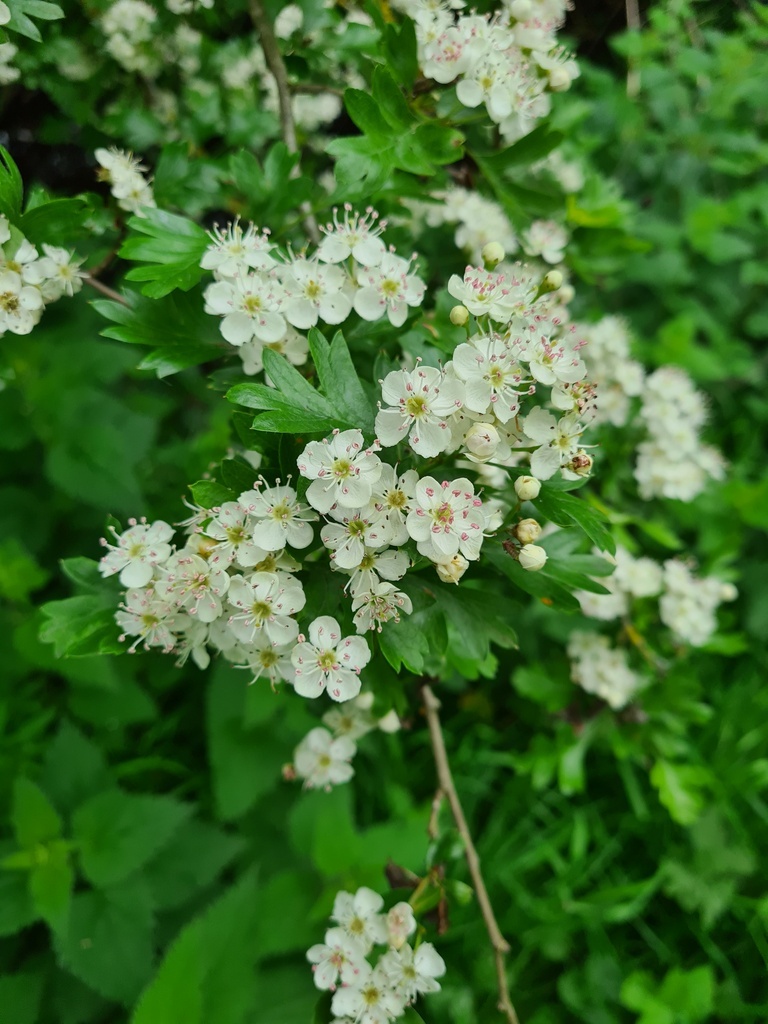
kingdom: Plantae
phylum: Tracheophyta
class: Magnoliopsida
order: Rosales
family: Rosaceae
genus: Crataegus
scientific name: Crataegus monogyna
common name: Hawthorn
